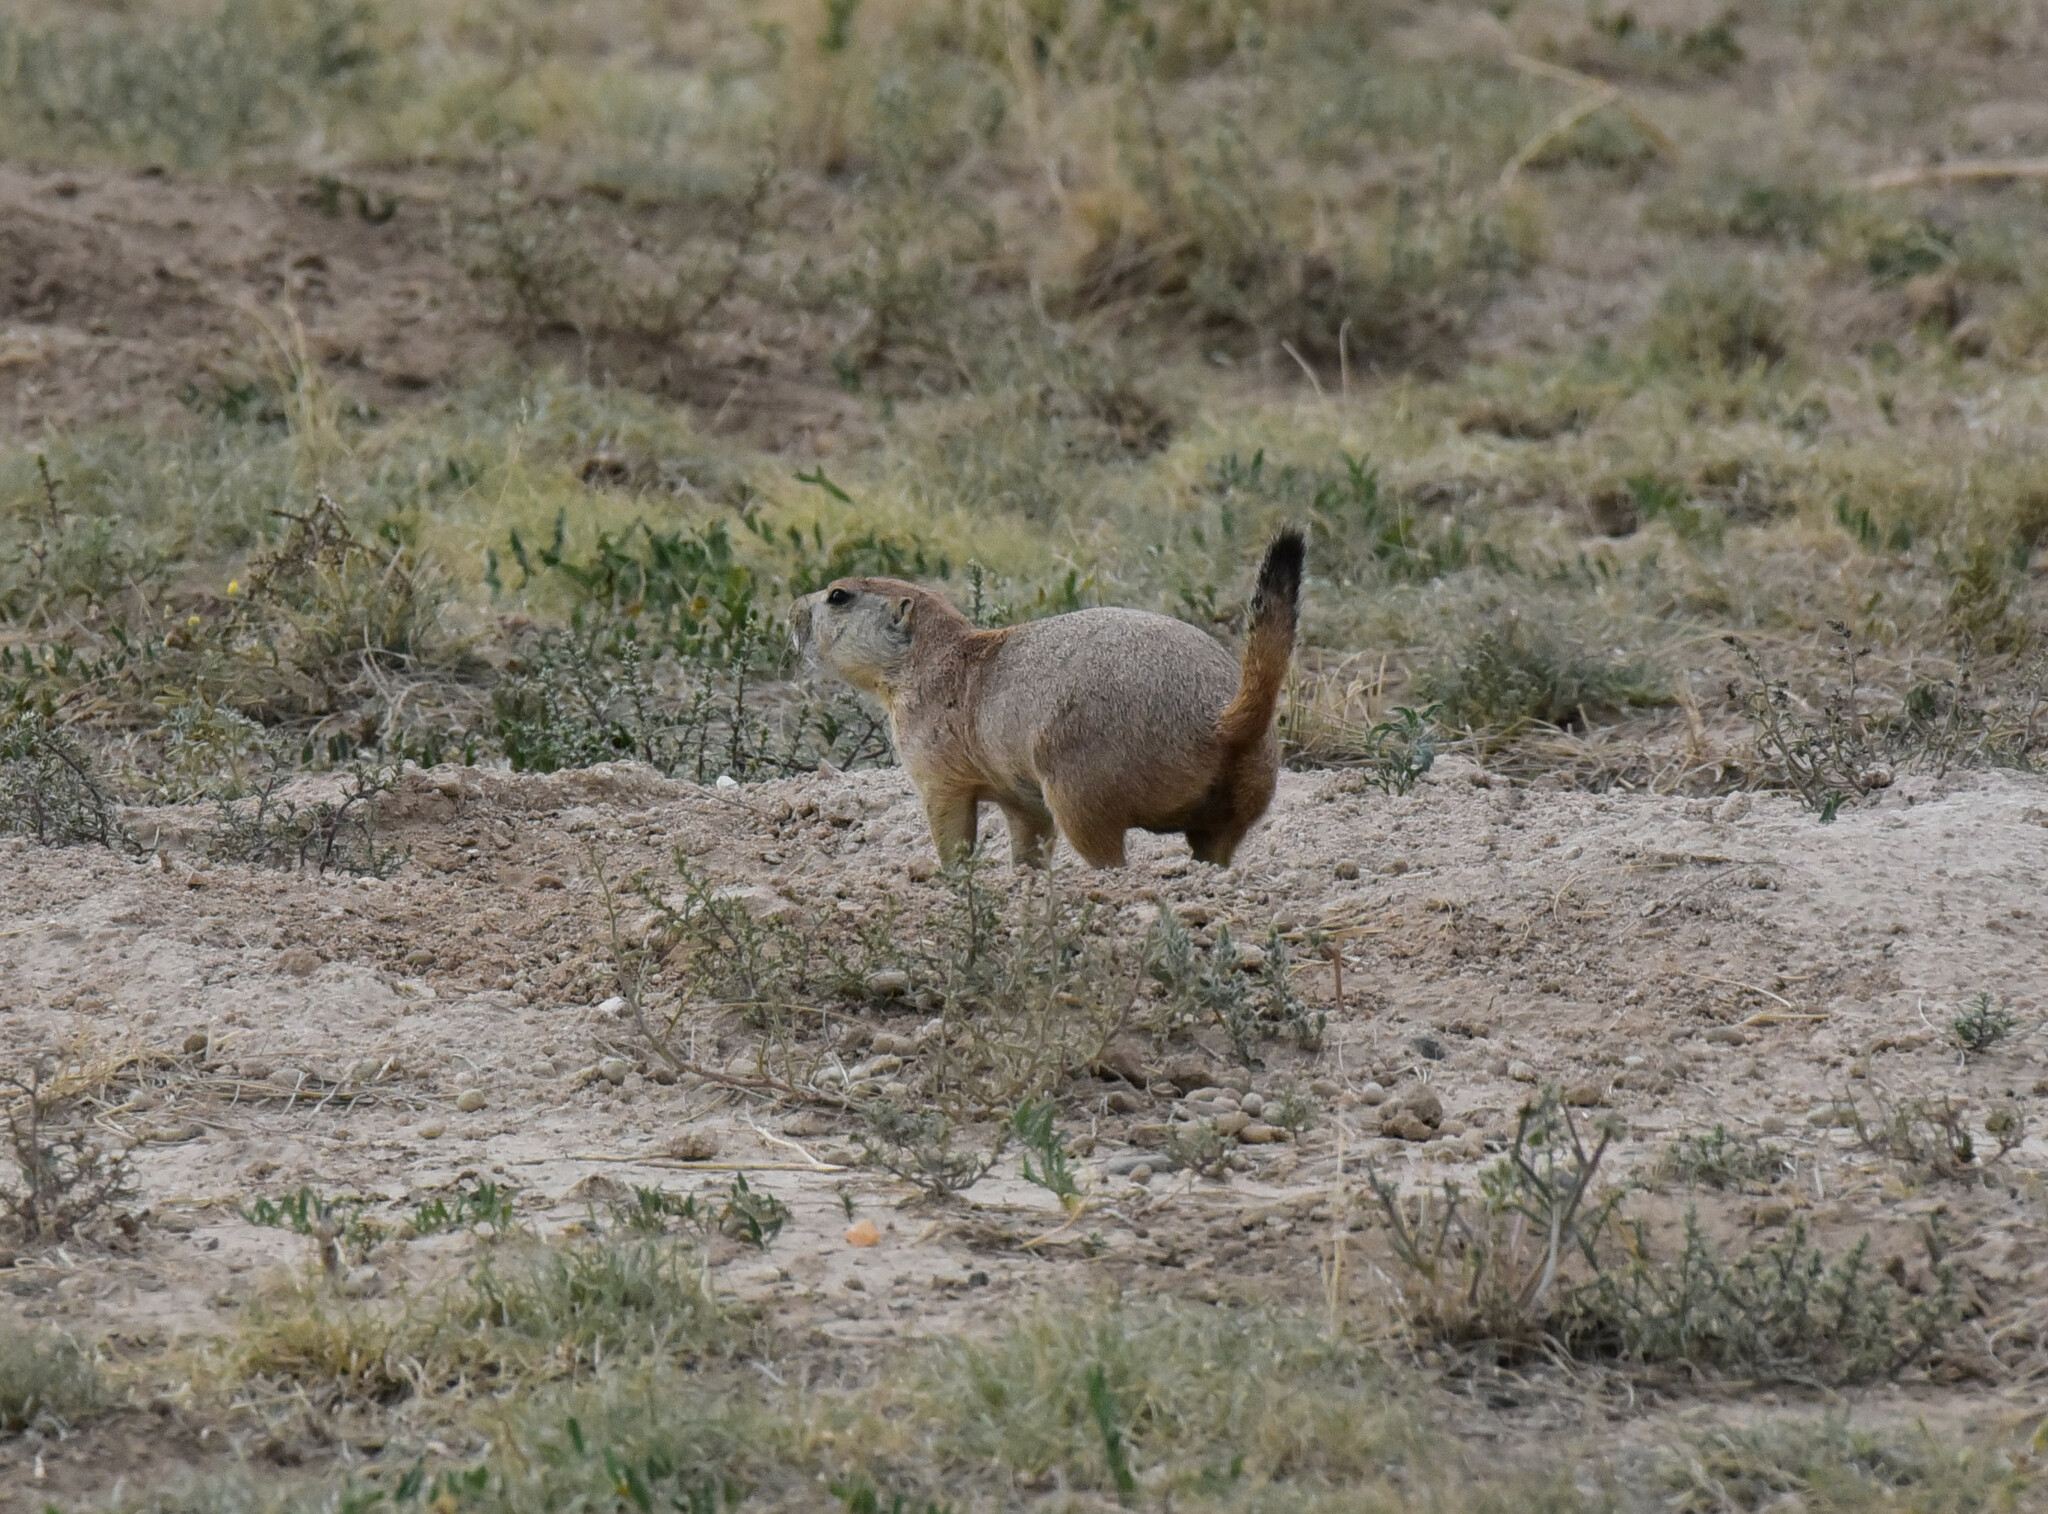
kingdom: Animalia
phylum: Chordata
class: Mammalia
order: Rodentia
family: Sciuridae
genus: Cynomys
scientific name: Cynomys ludovicianus
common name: Black-tailed prairie dog
